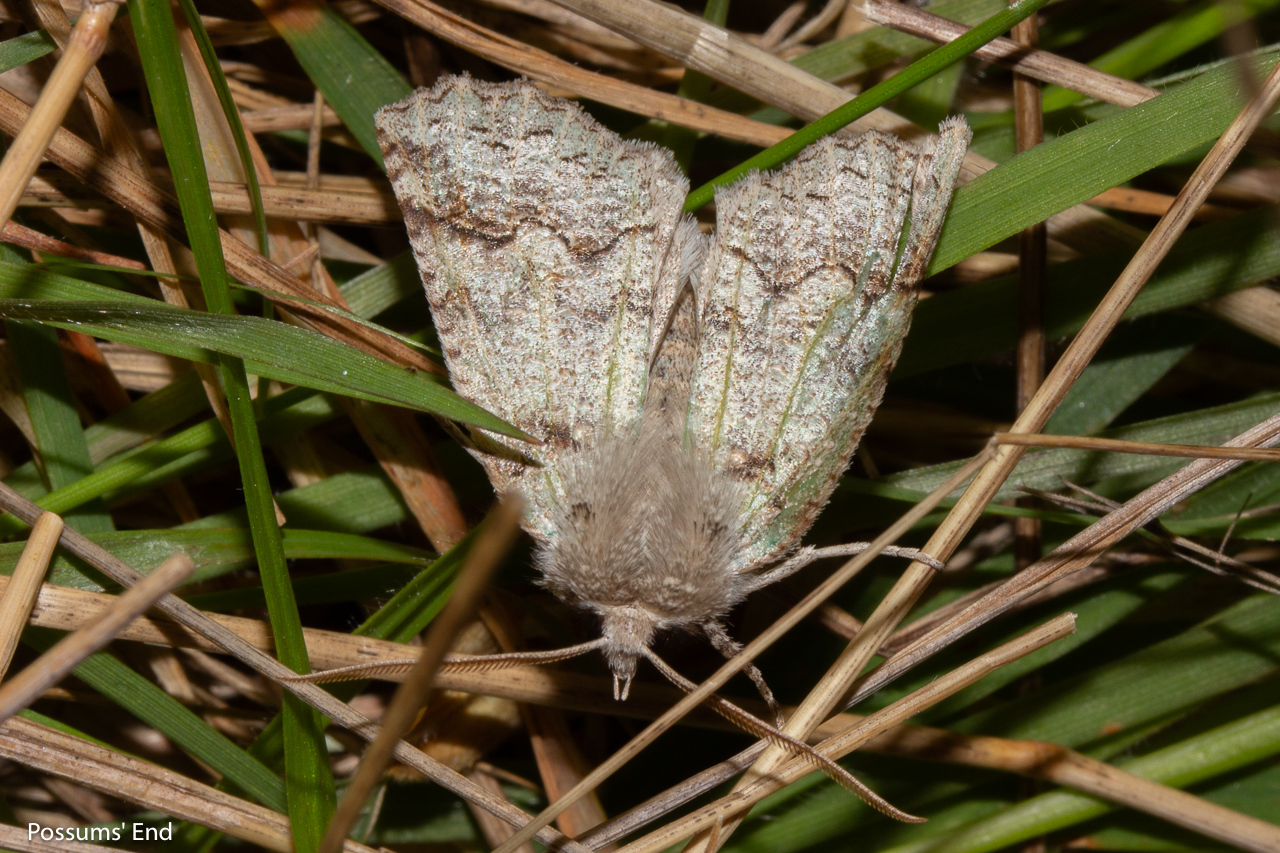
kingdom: Animalia
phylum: Arthropoda
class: Insecta
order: Lepidoptera
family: Geometridae
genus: Declana
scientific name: Declana floccosa
